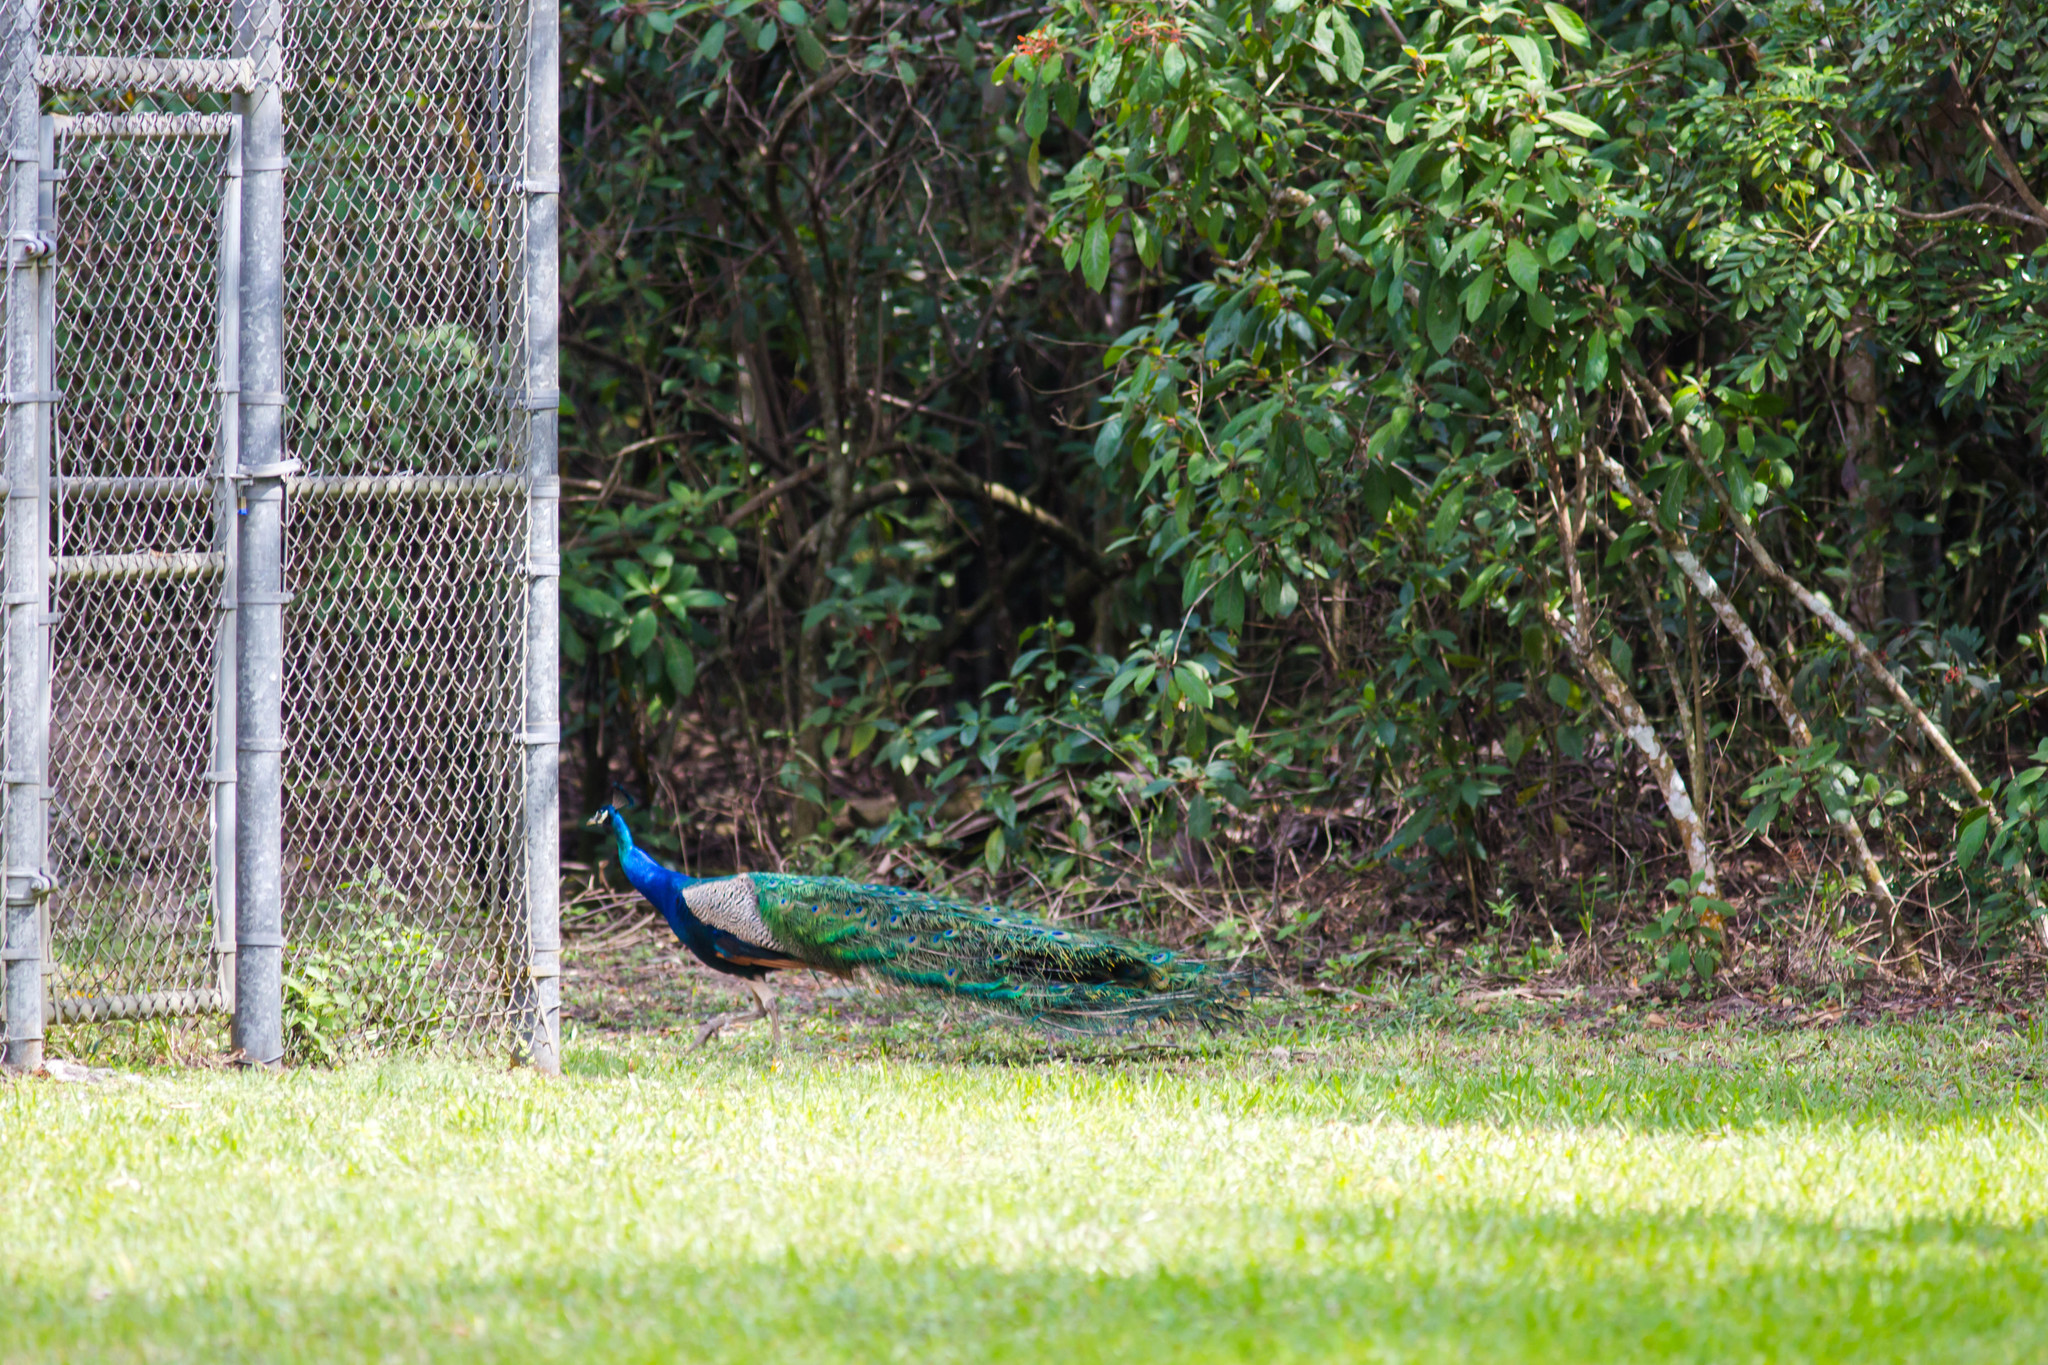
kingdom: Animalia
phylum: Chordata
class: Aves
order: Galliformes
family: Phasianidae
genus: Pavo
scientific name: Pavo cristatus
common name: Indian peafowl
